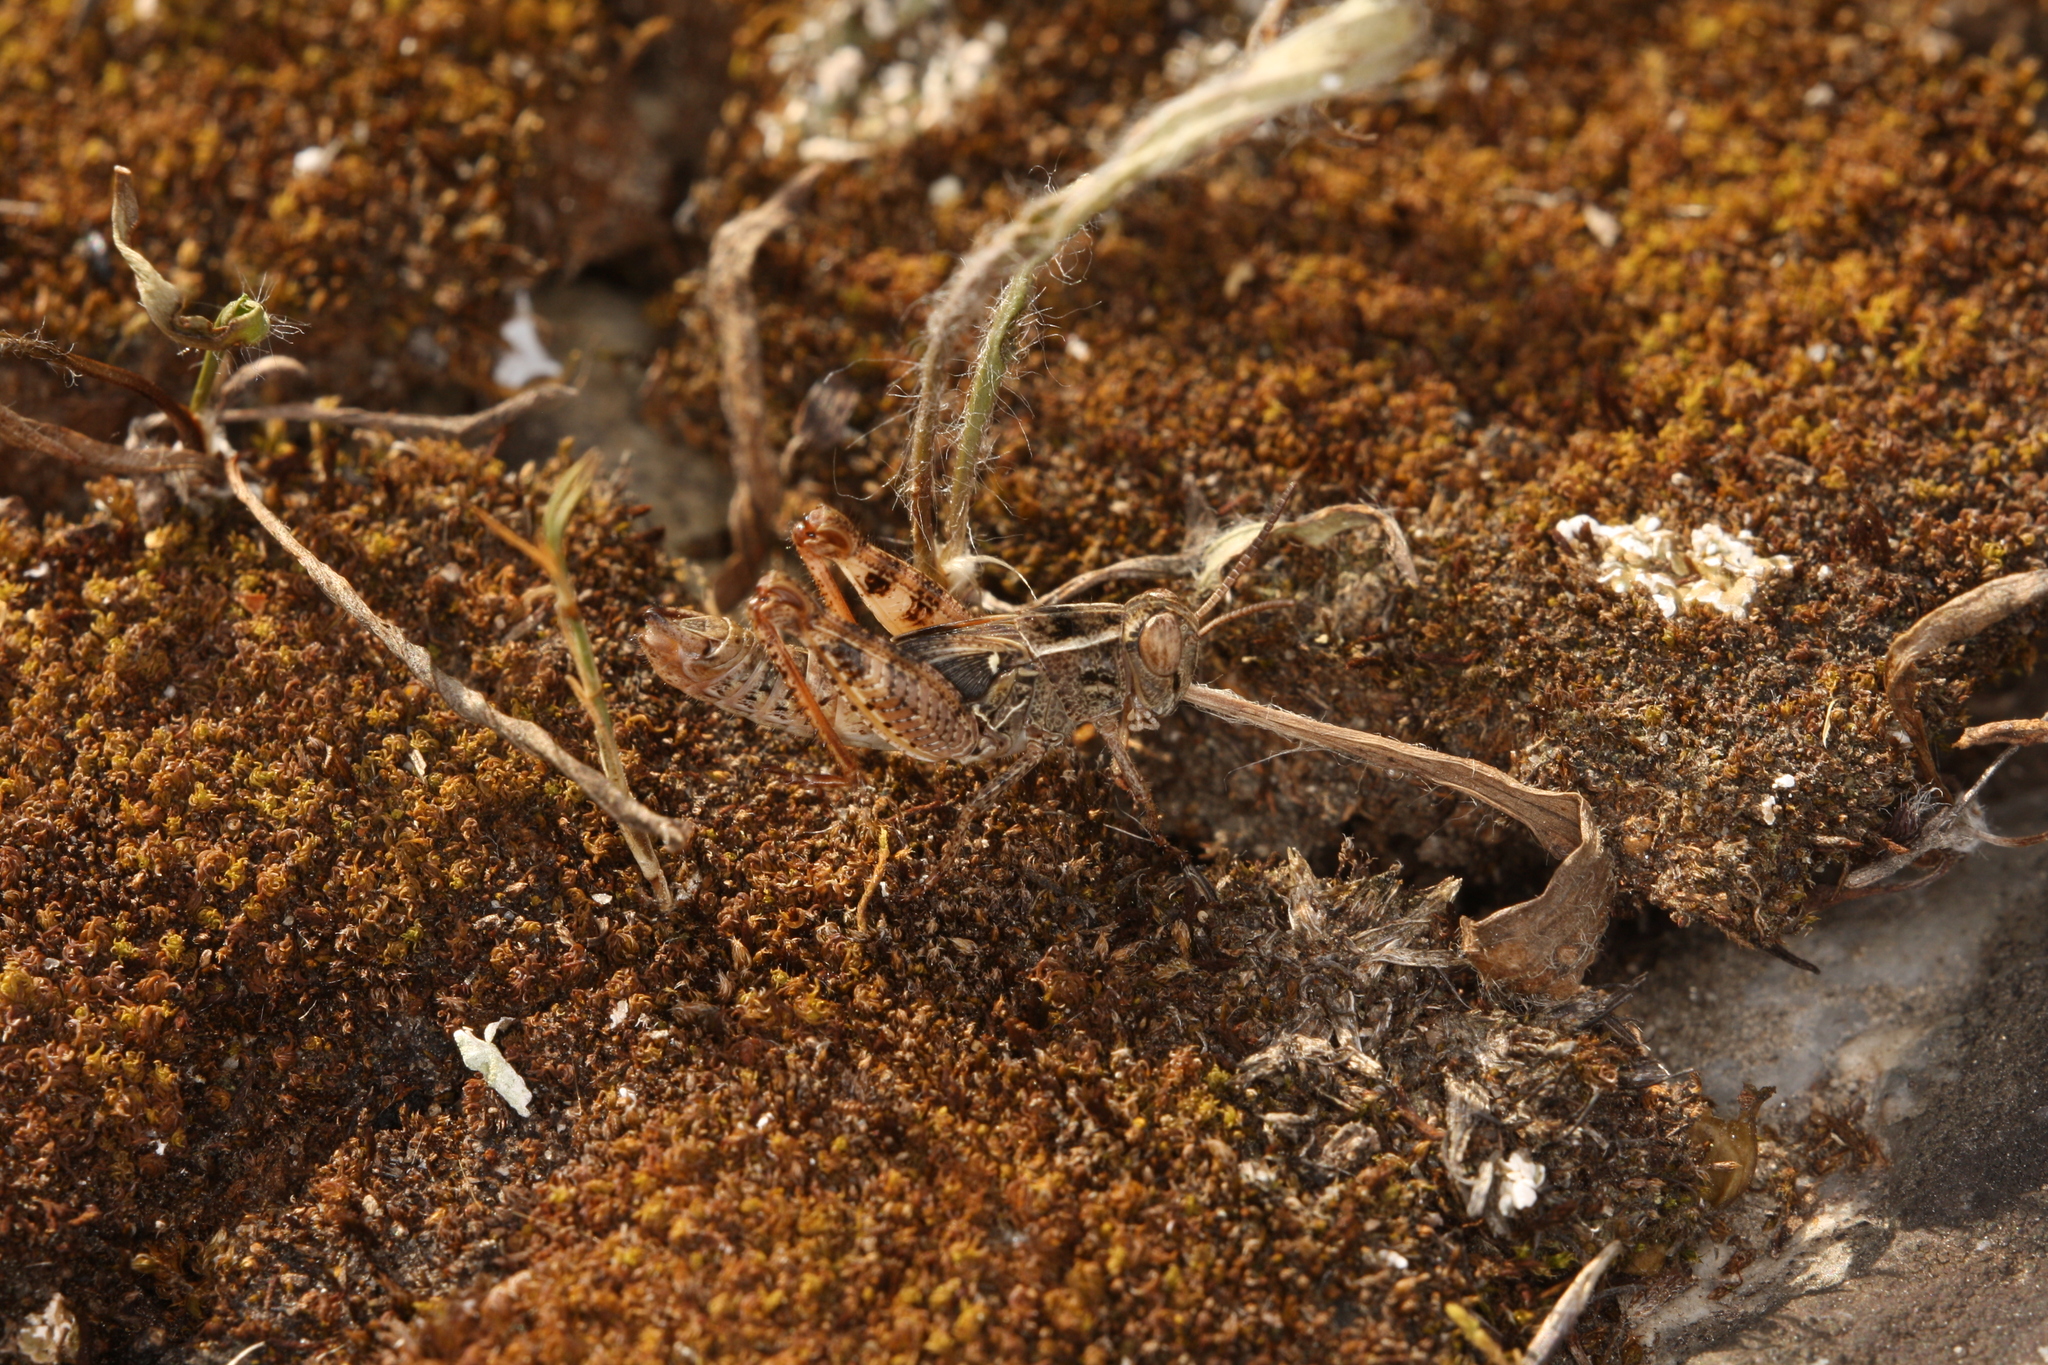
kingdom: Animalia
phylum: Arthropoda
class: Insecta
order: Orthoptera
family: Acrididae
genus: Calliptamus
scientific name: Calliptamus italicus
